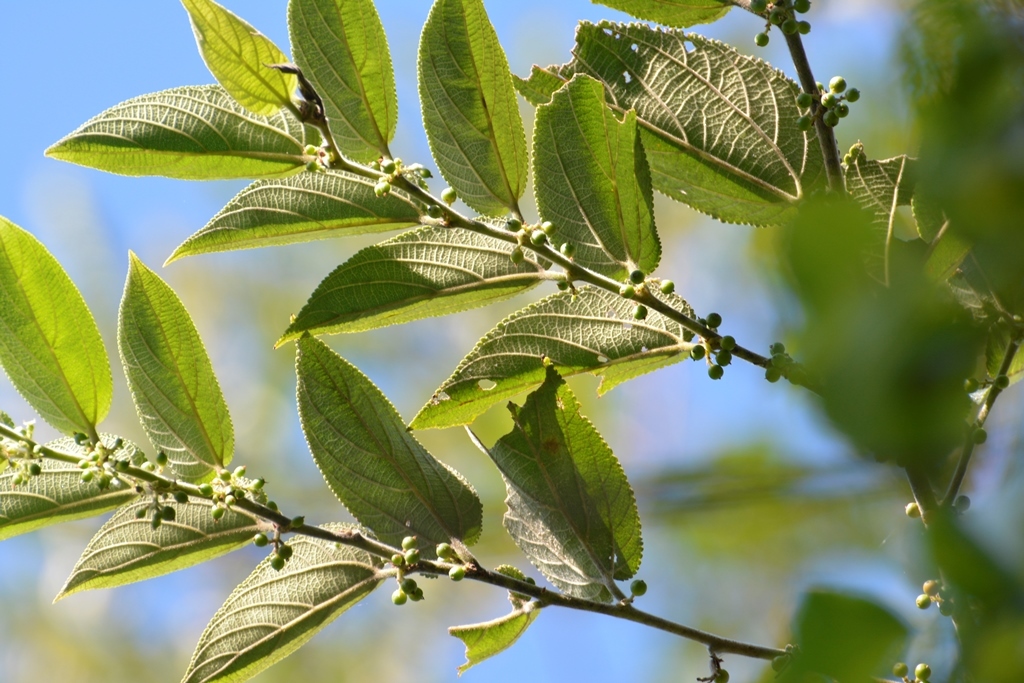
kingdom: Plantae
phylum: Tracheophyta
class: Magnoliopsida
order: Rosales
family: Cannabaceae
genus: Trema
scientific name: Trema micranthum
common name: Jamaican nettletree
